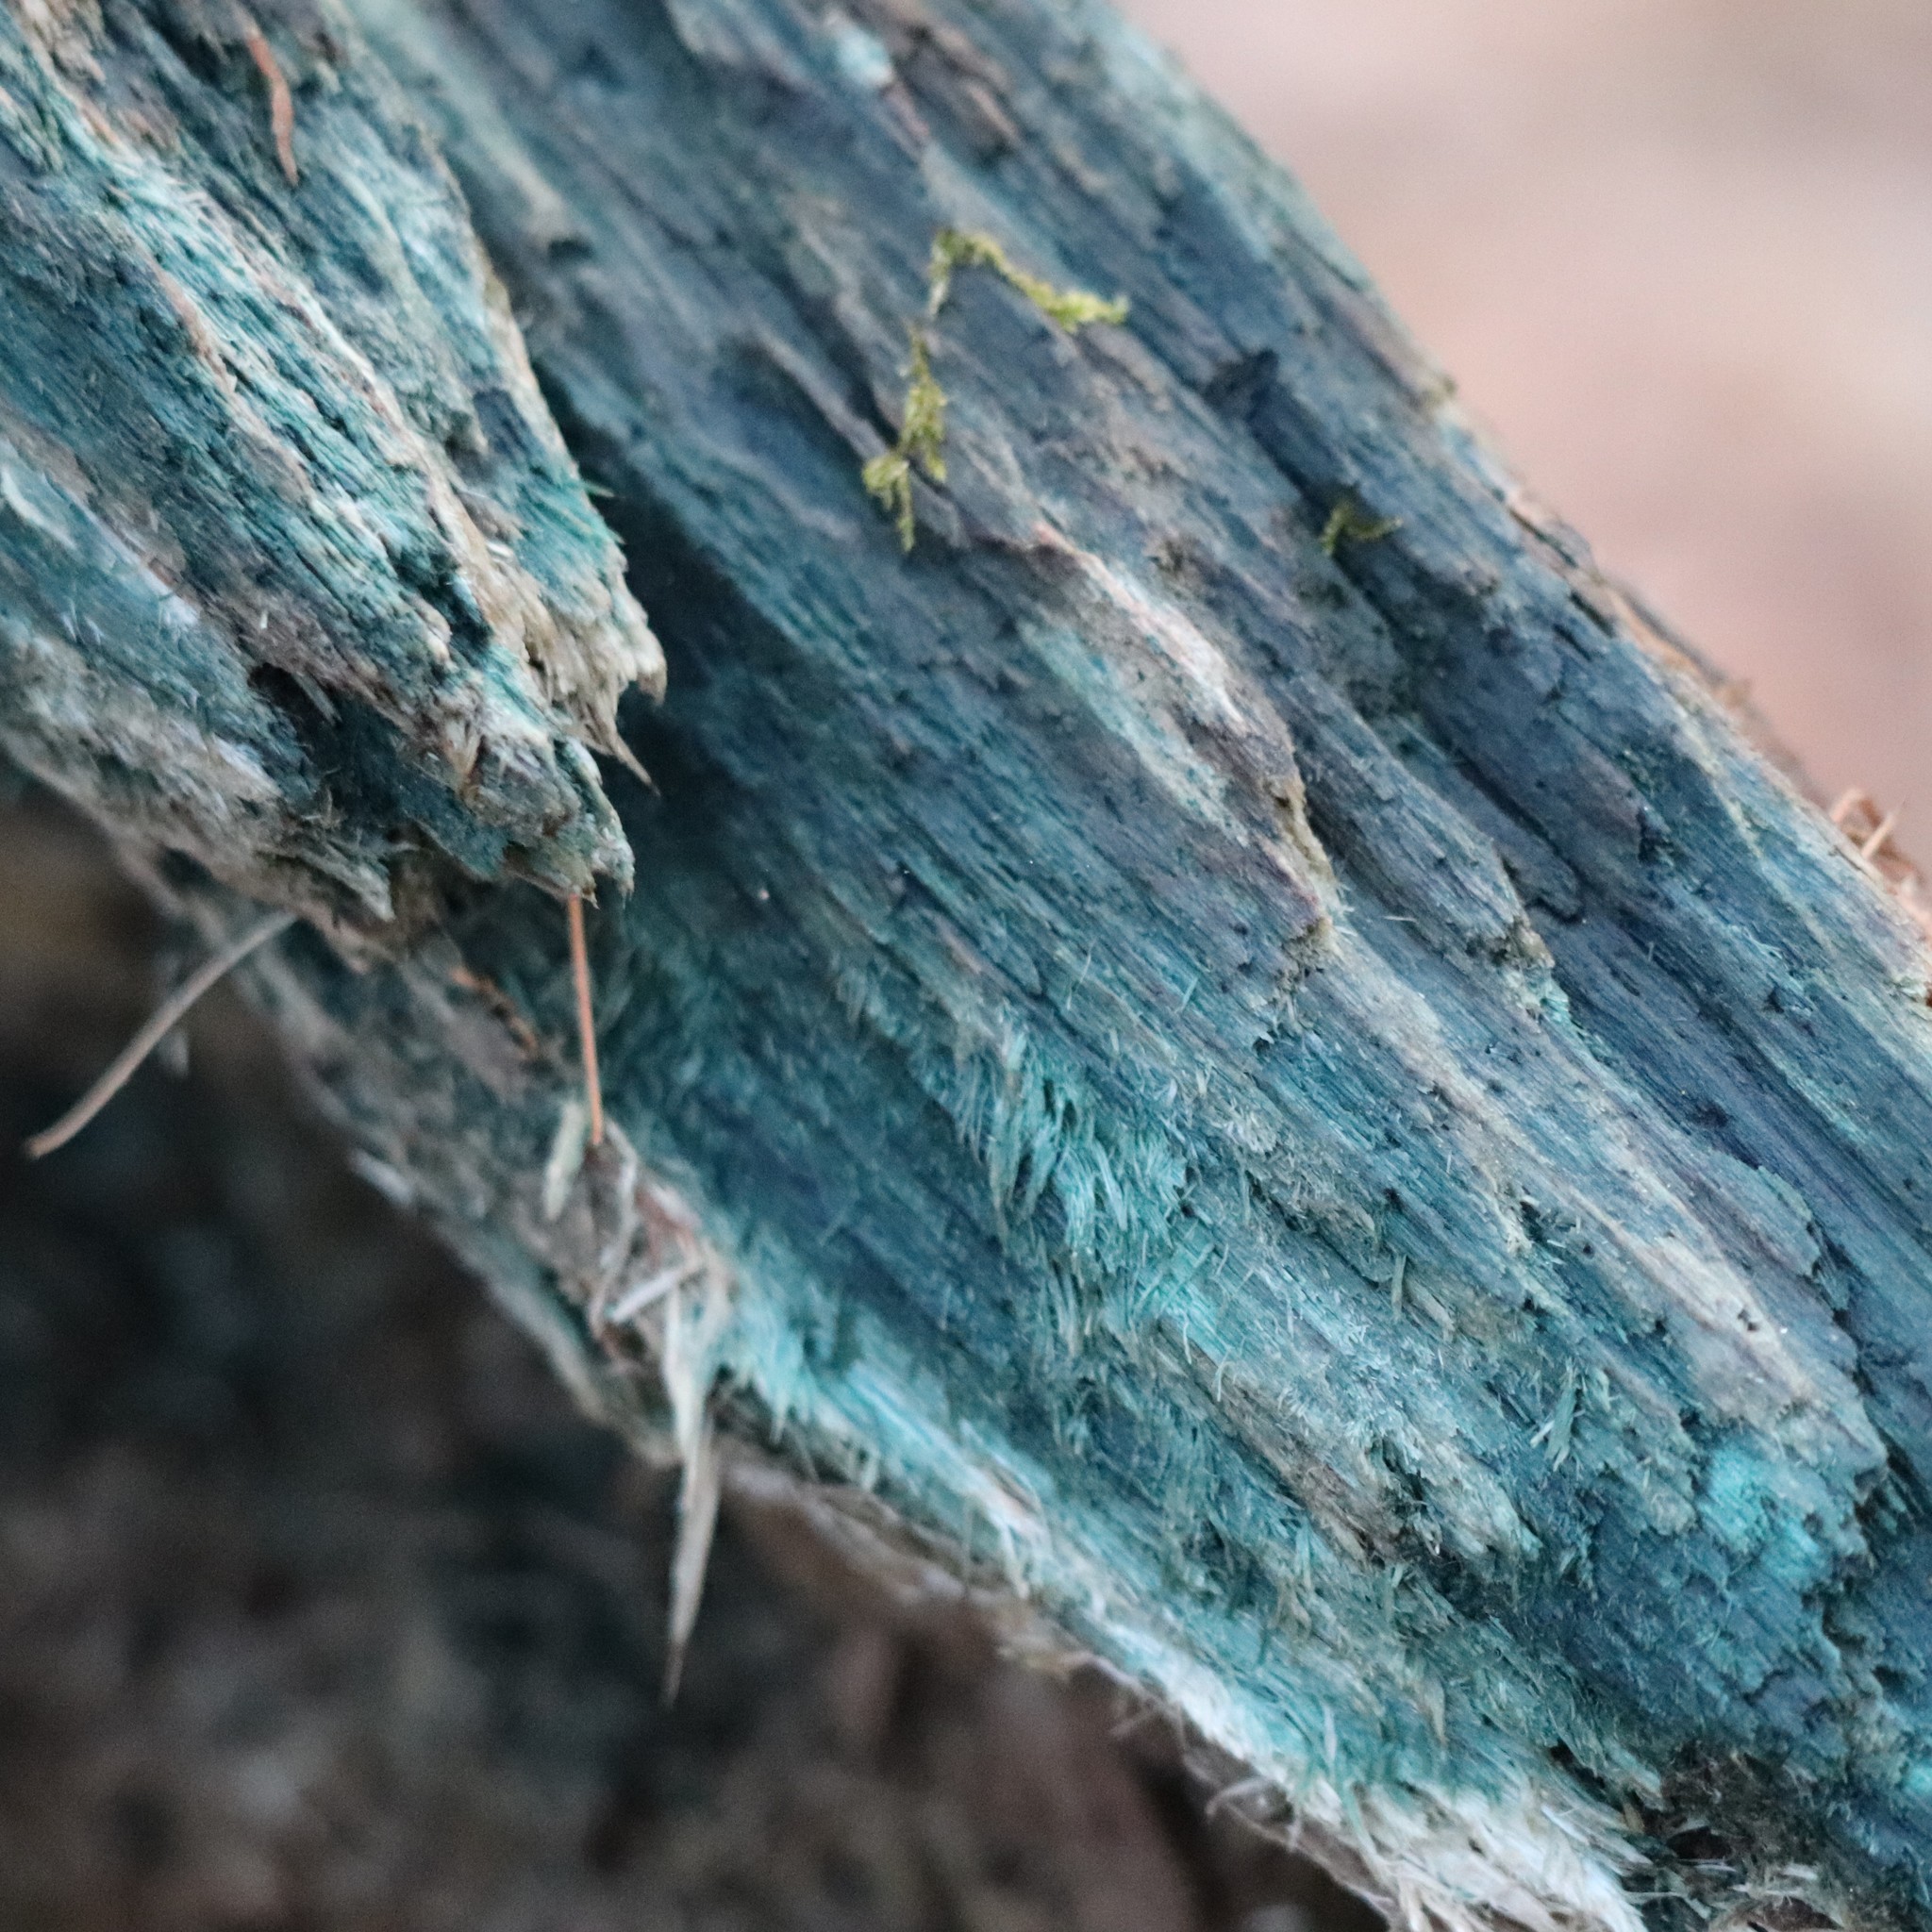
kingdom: Fungi
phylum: Ascomycota
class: Leotiomycetes
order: Helotiales
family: Chlorociboriaceae
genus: Chlorociboria
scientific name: Chlorociboria
